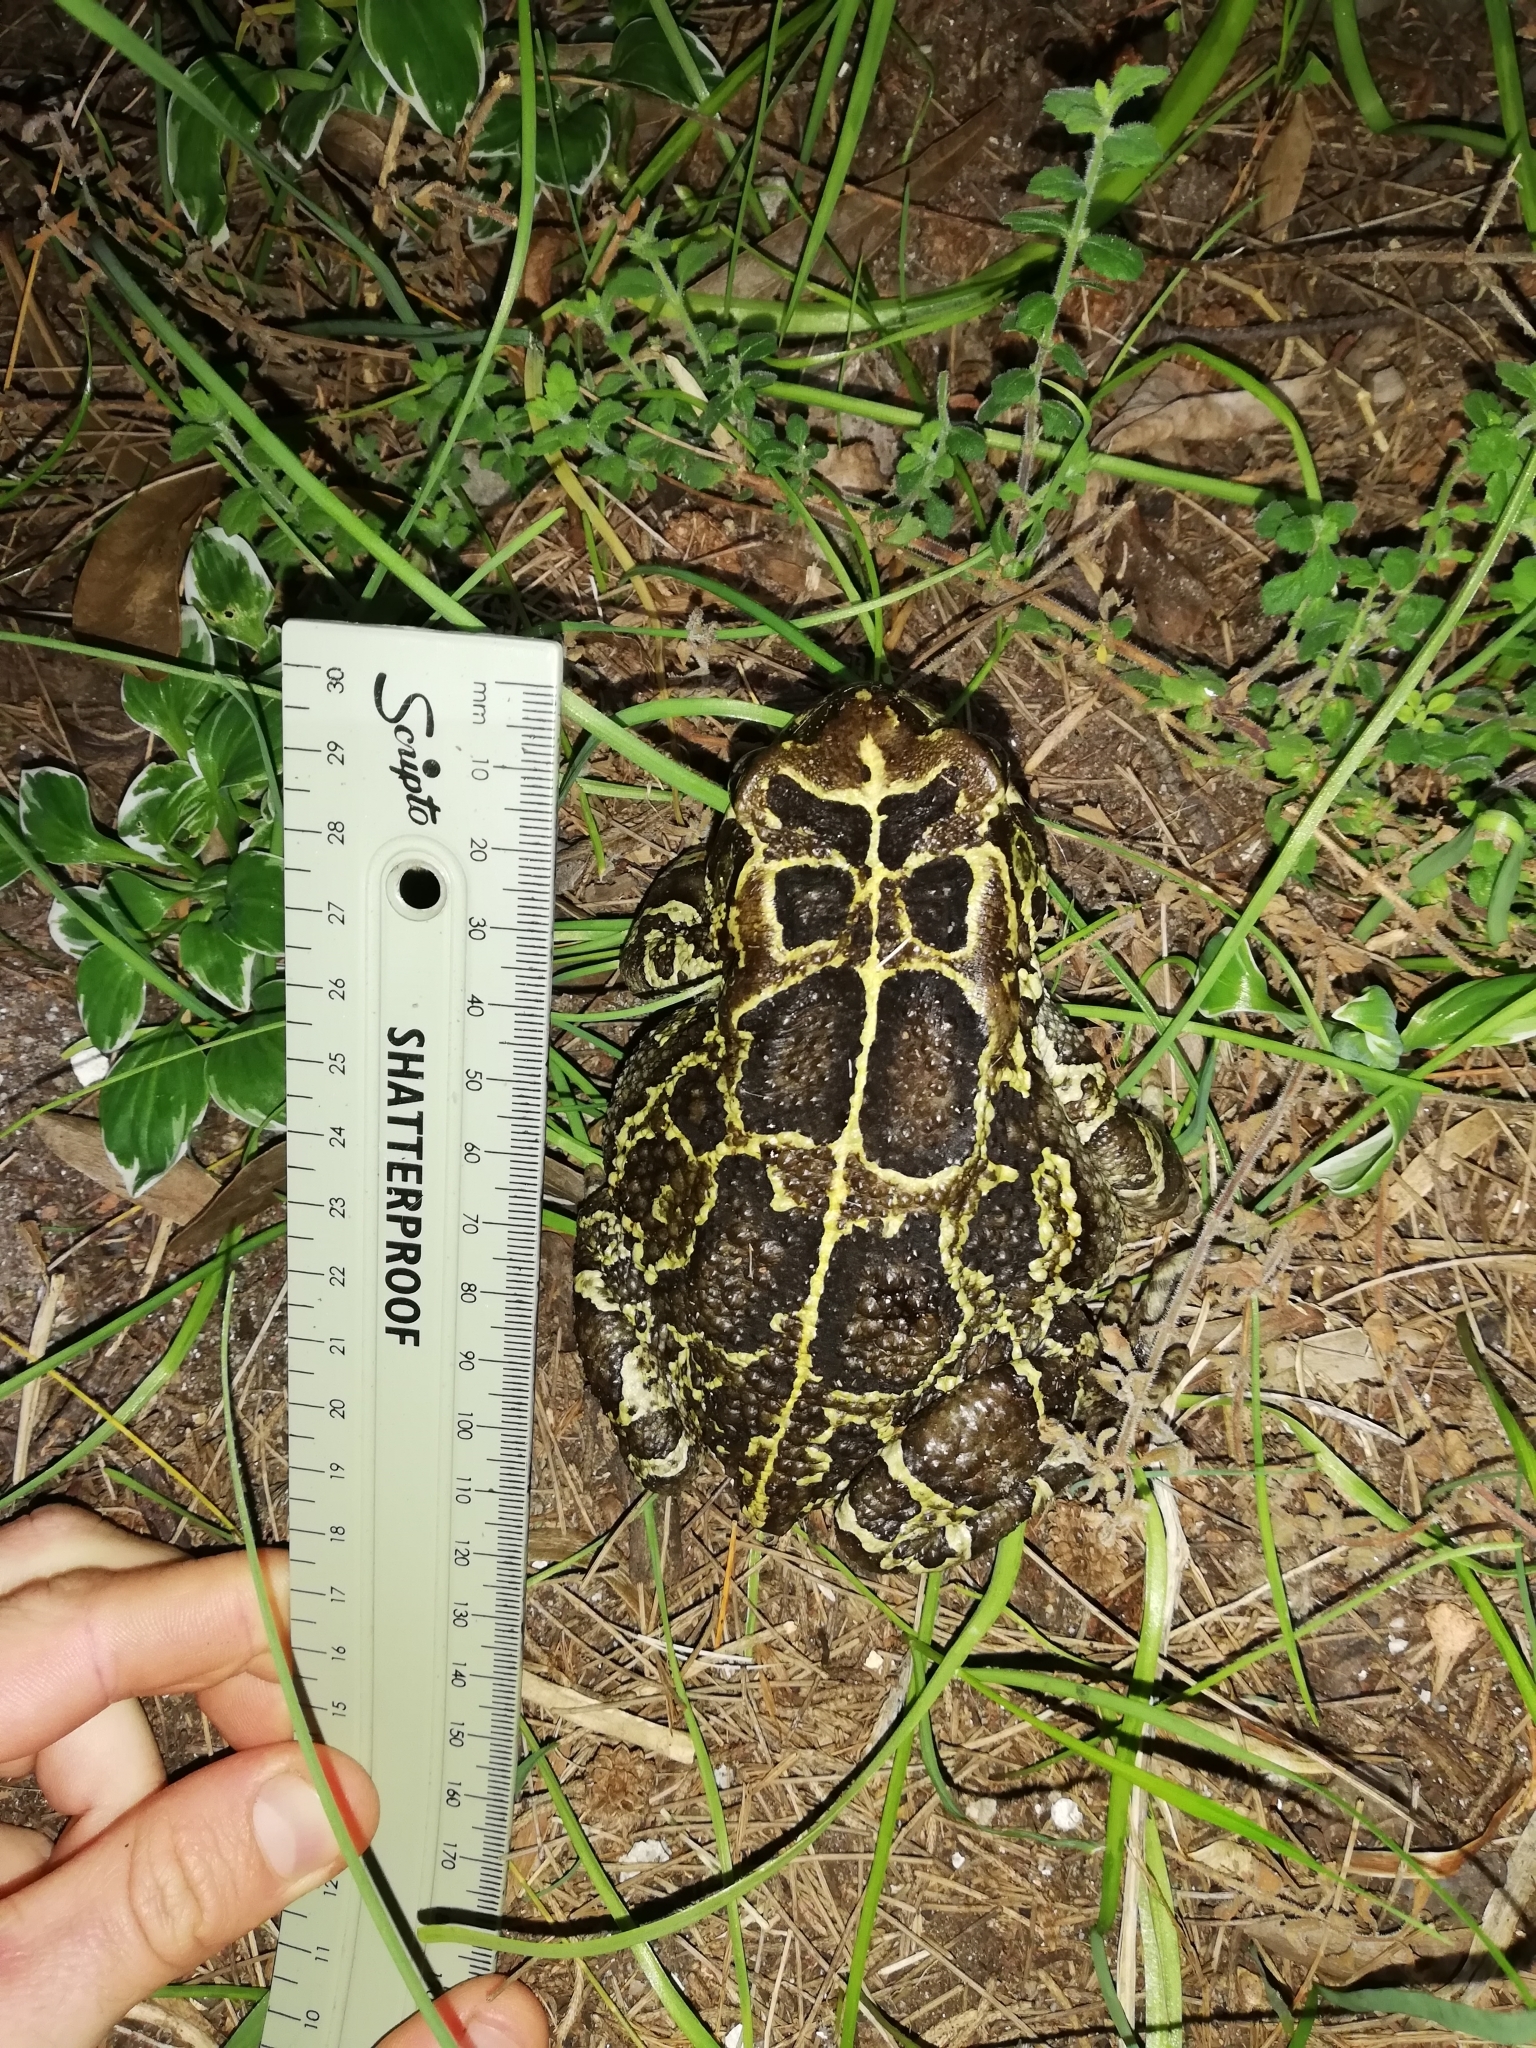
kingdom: Animalia
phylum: Chordata
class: Amphibia
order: Anura
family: Bufonidae
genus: Sclerophrys
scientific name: Sclerophrys pantherina
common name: Panther toad
